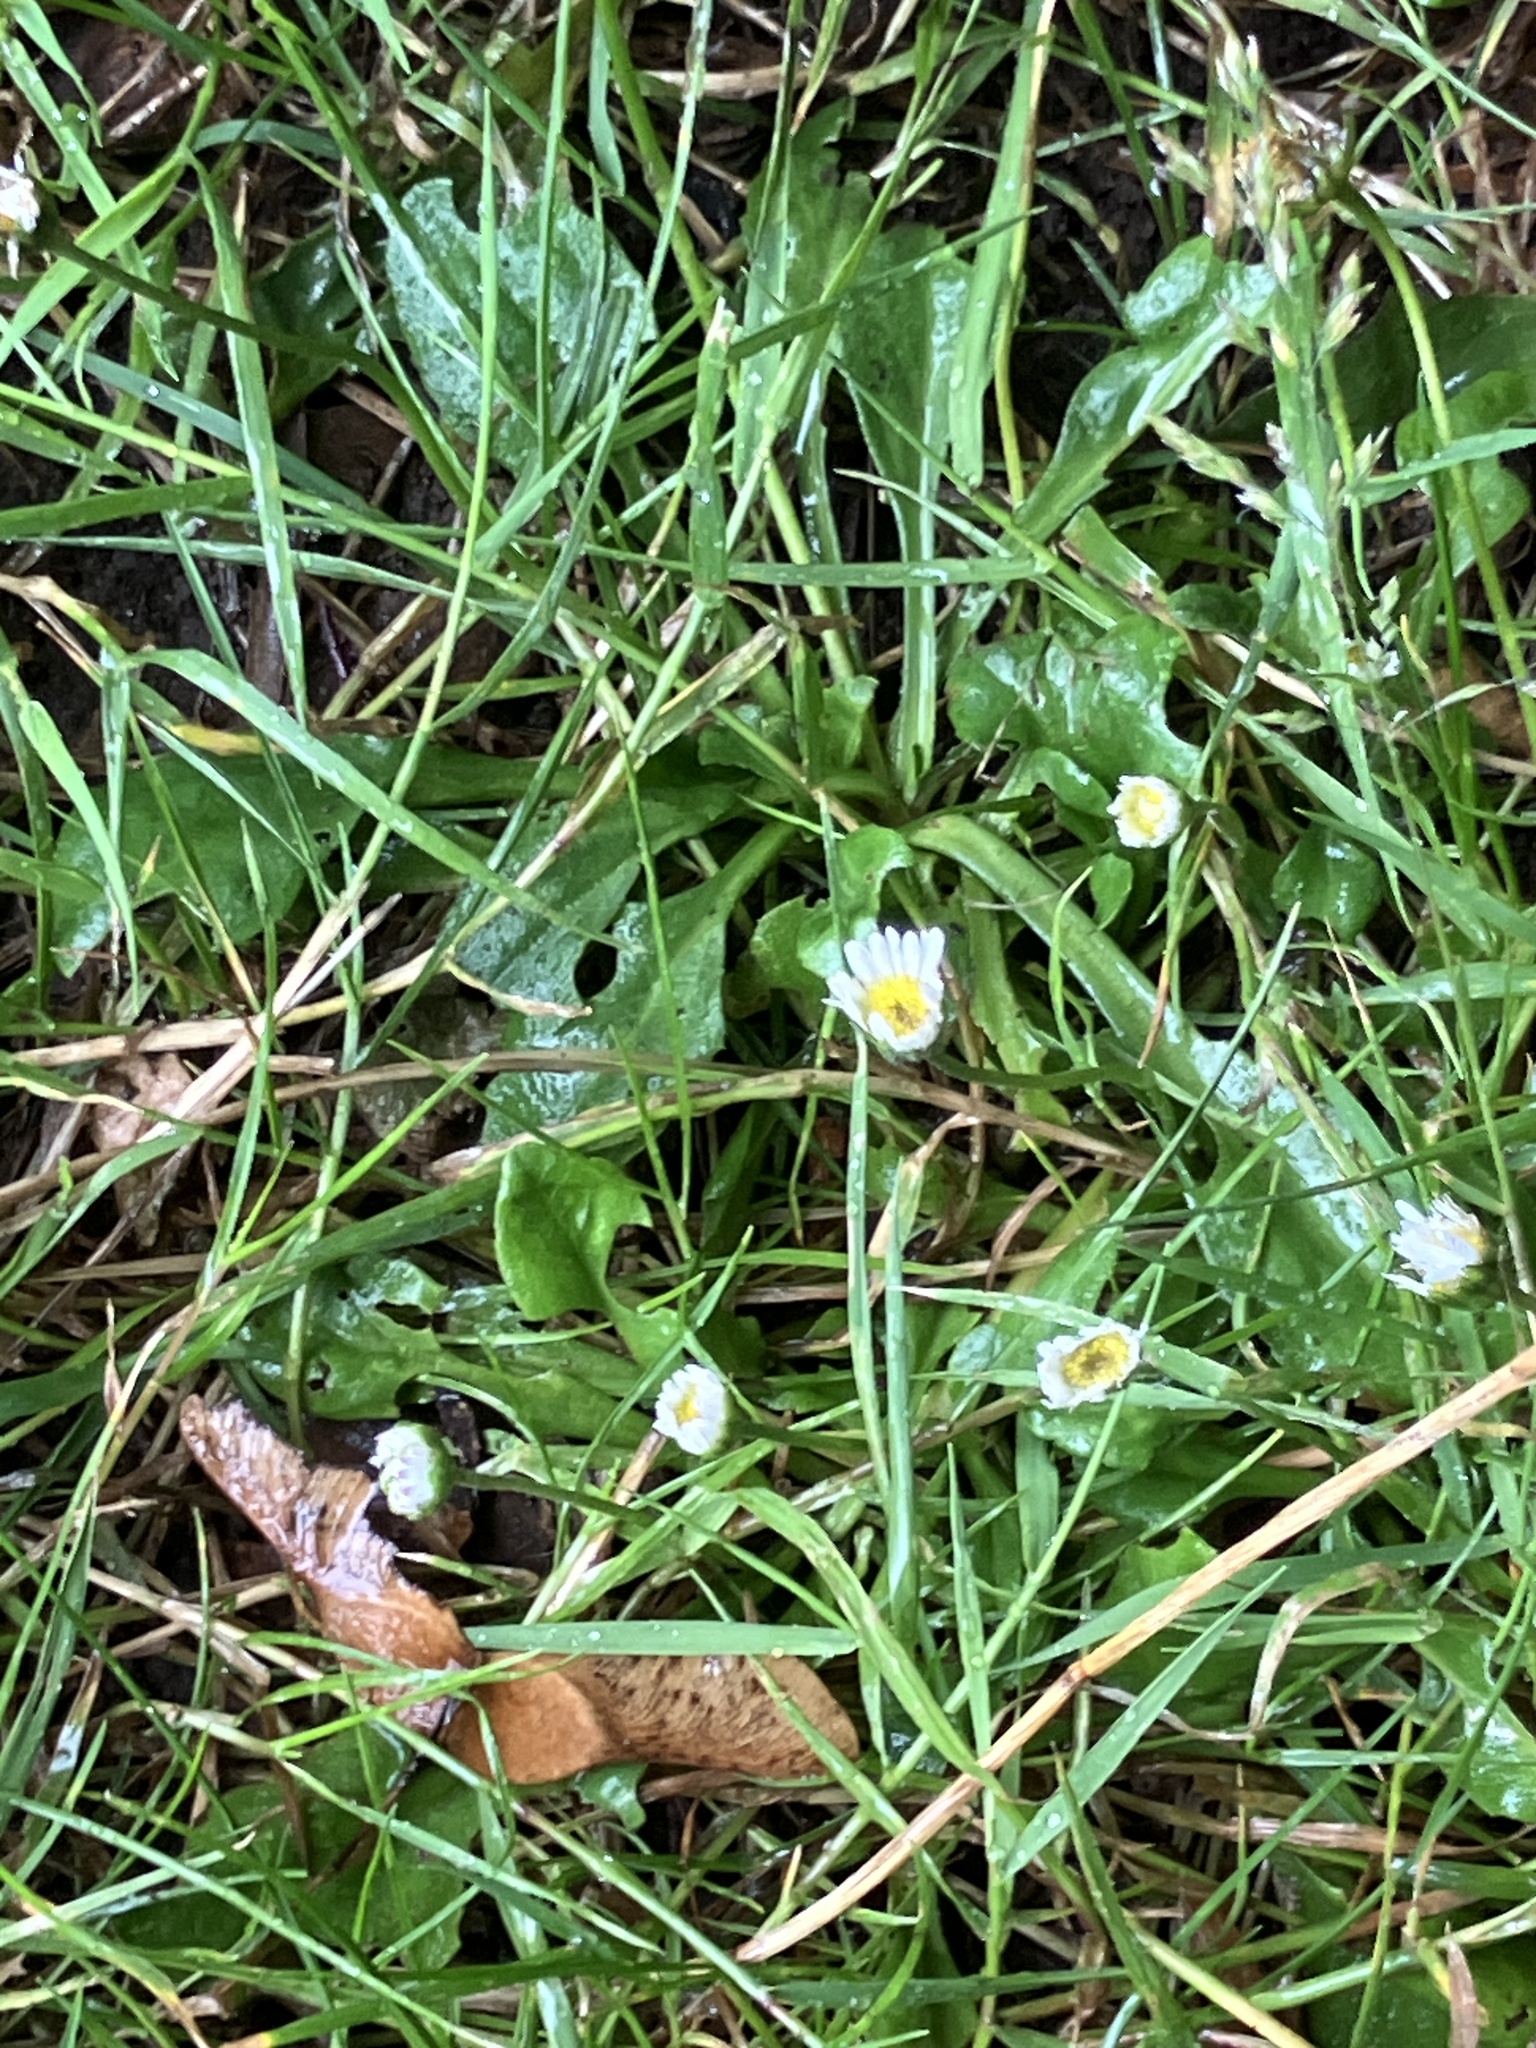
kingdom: Plantae
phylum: Tracheophyta
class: Magnoliopsida
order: Asterales
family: Asteraceae
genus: Bellis
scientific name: Bellis perennis
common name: Lawndaisy
